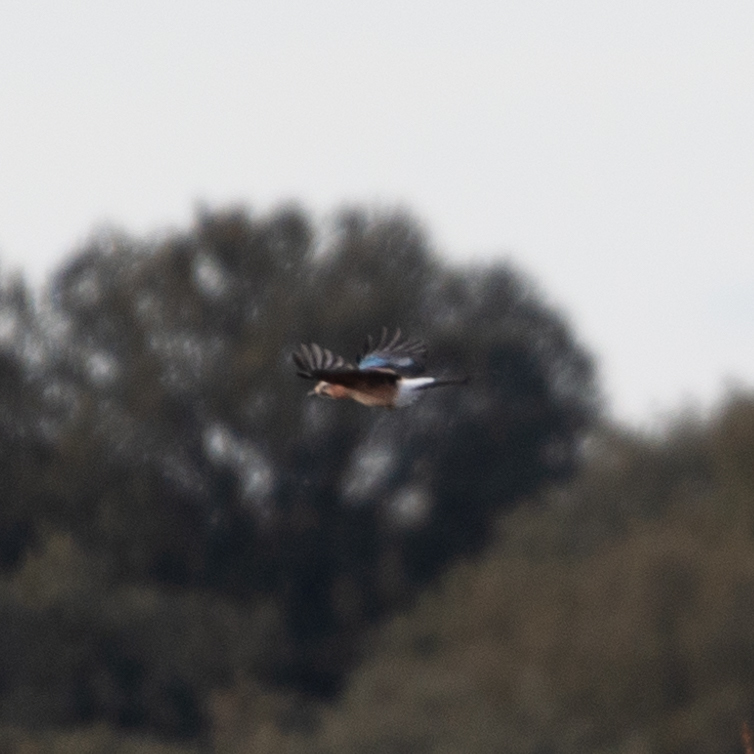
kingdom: Animalia
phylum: Chordata
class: Aves
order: Passeriformes
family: Corvidae
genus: Garrulus
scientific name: Garrulus glandarius
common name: Eurasian jay
